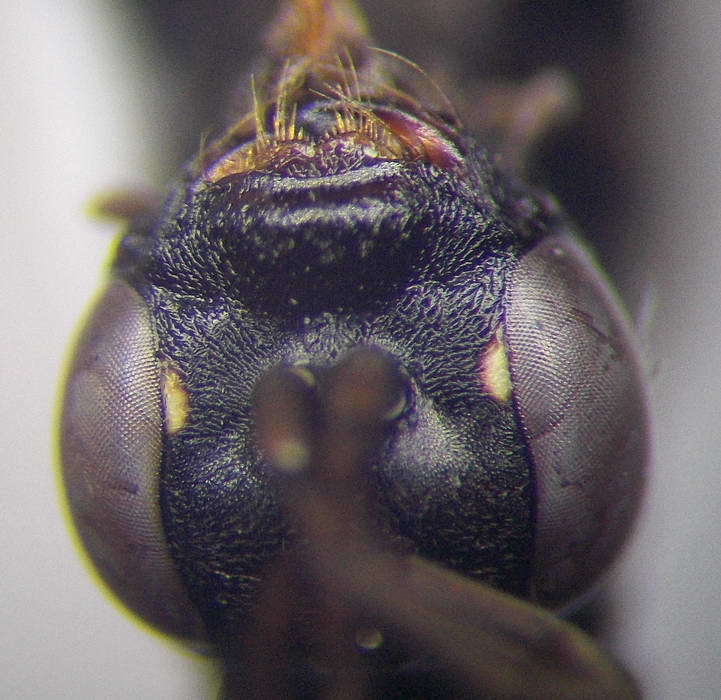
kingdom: Animalia
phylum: Arthropoda
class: Insecta
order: Hymenoptera
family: Pompilidae
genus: Cryptocheilus
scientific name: Cryptocheilus fischeri
